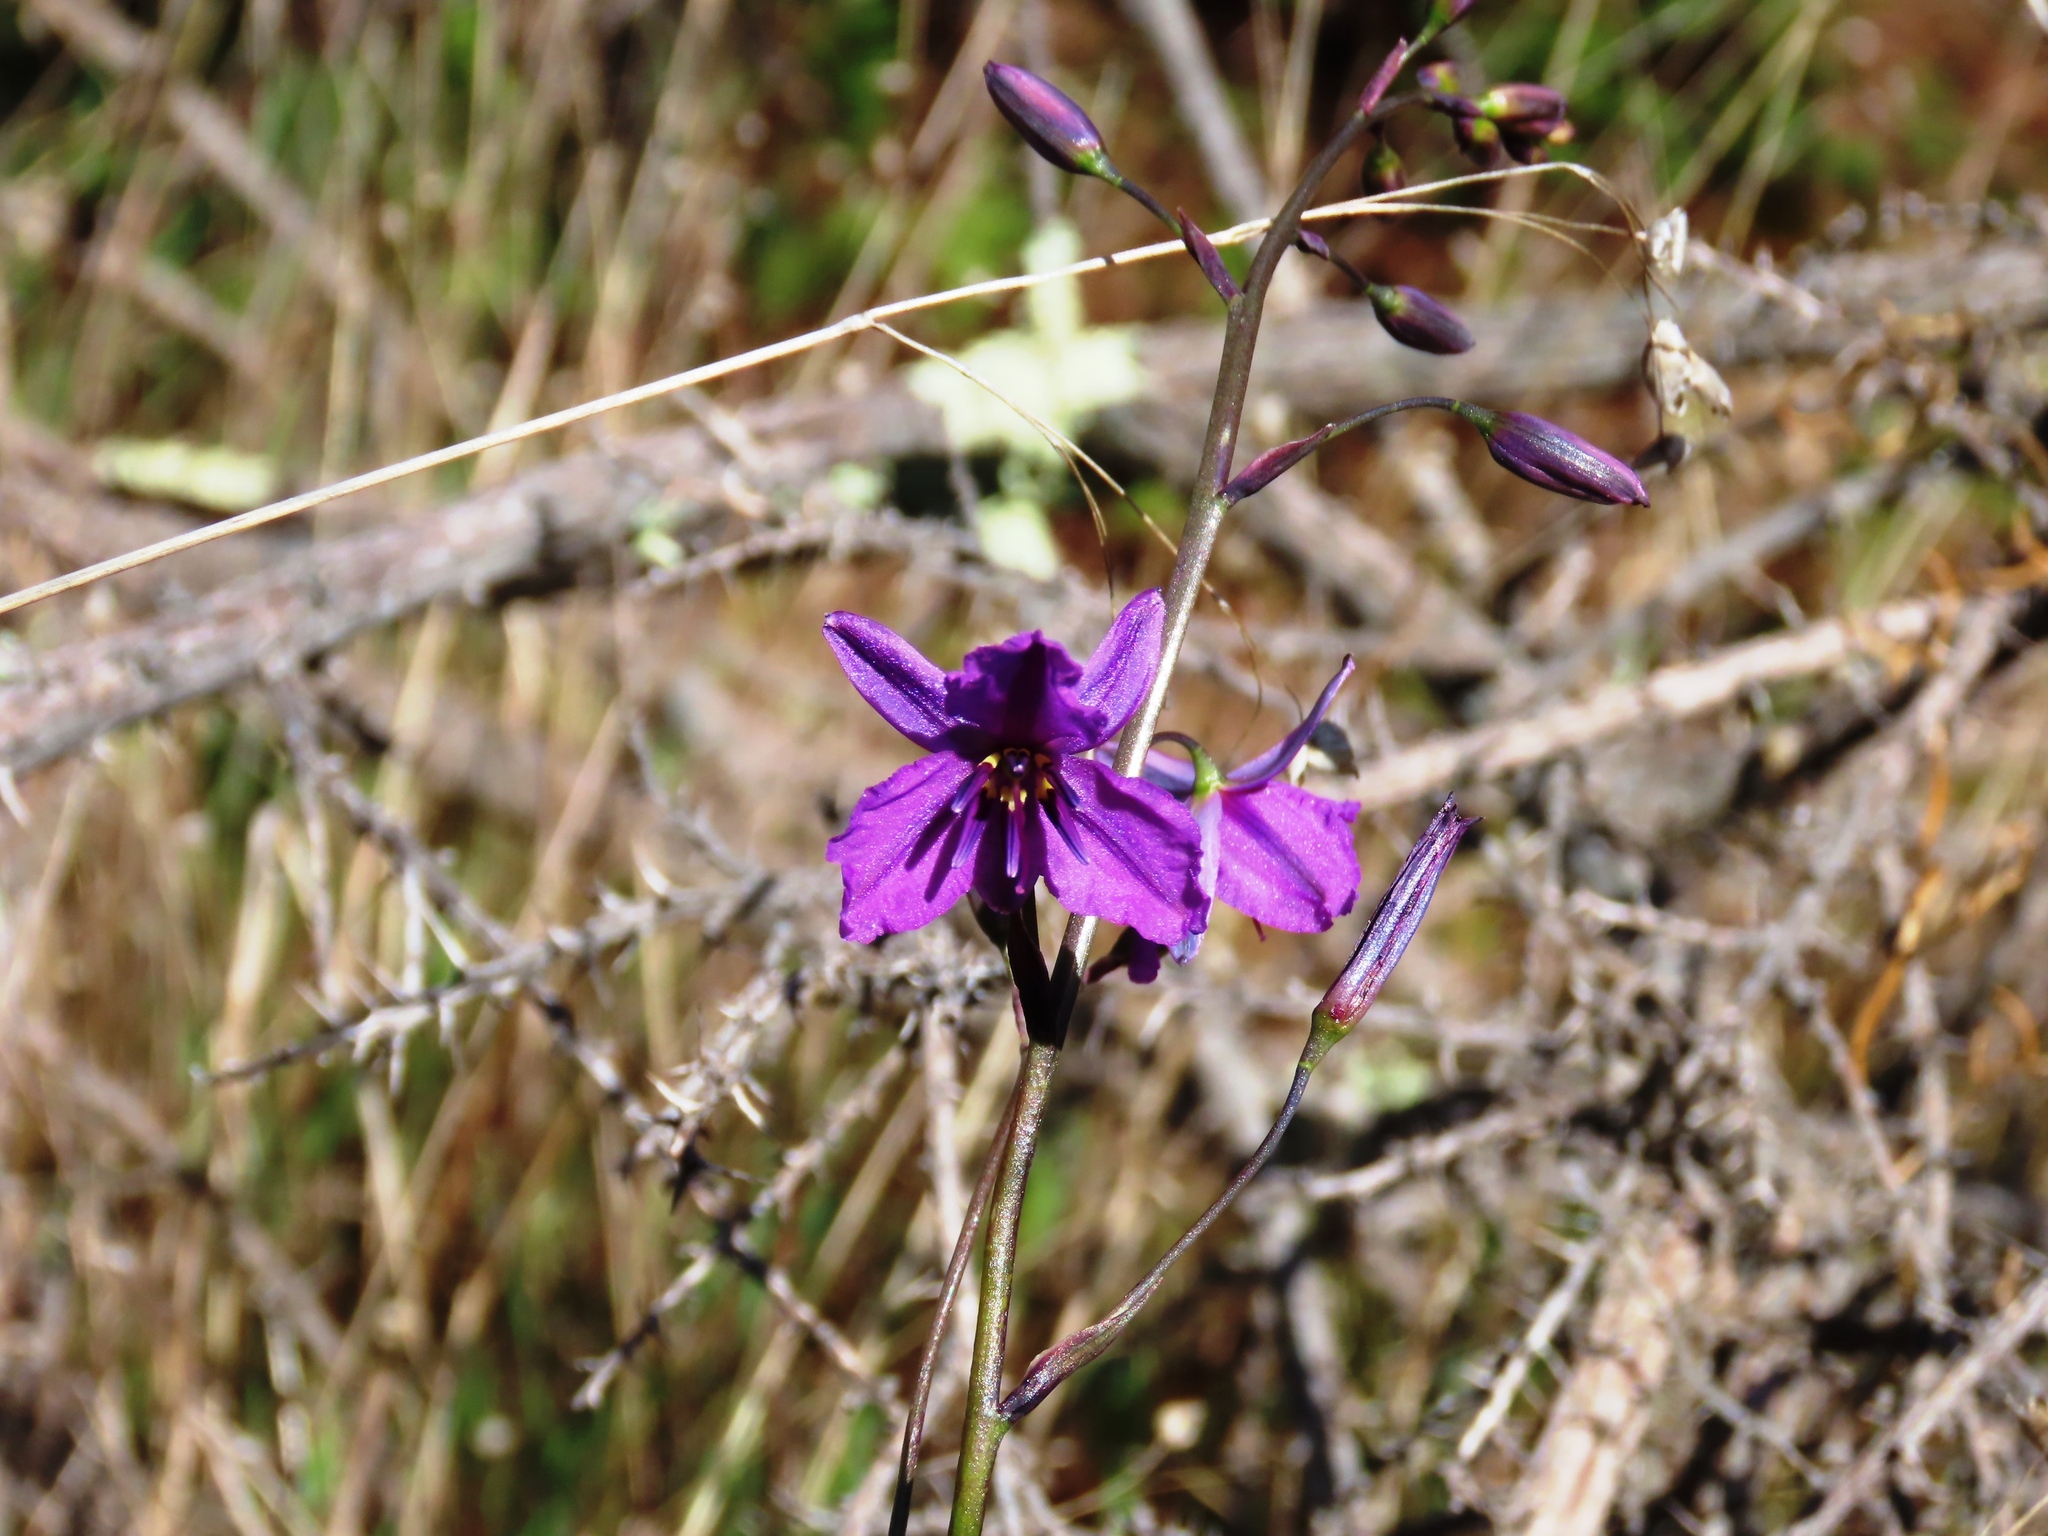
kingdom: Plantae
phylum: Tracheophyta
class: Liliopsida
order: Asparagales
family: Asparagaceae
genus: Arthropodium
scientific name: Arthropodium strictum
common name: Chocolate-lily
